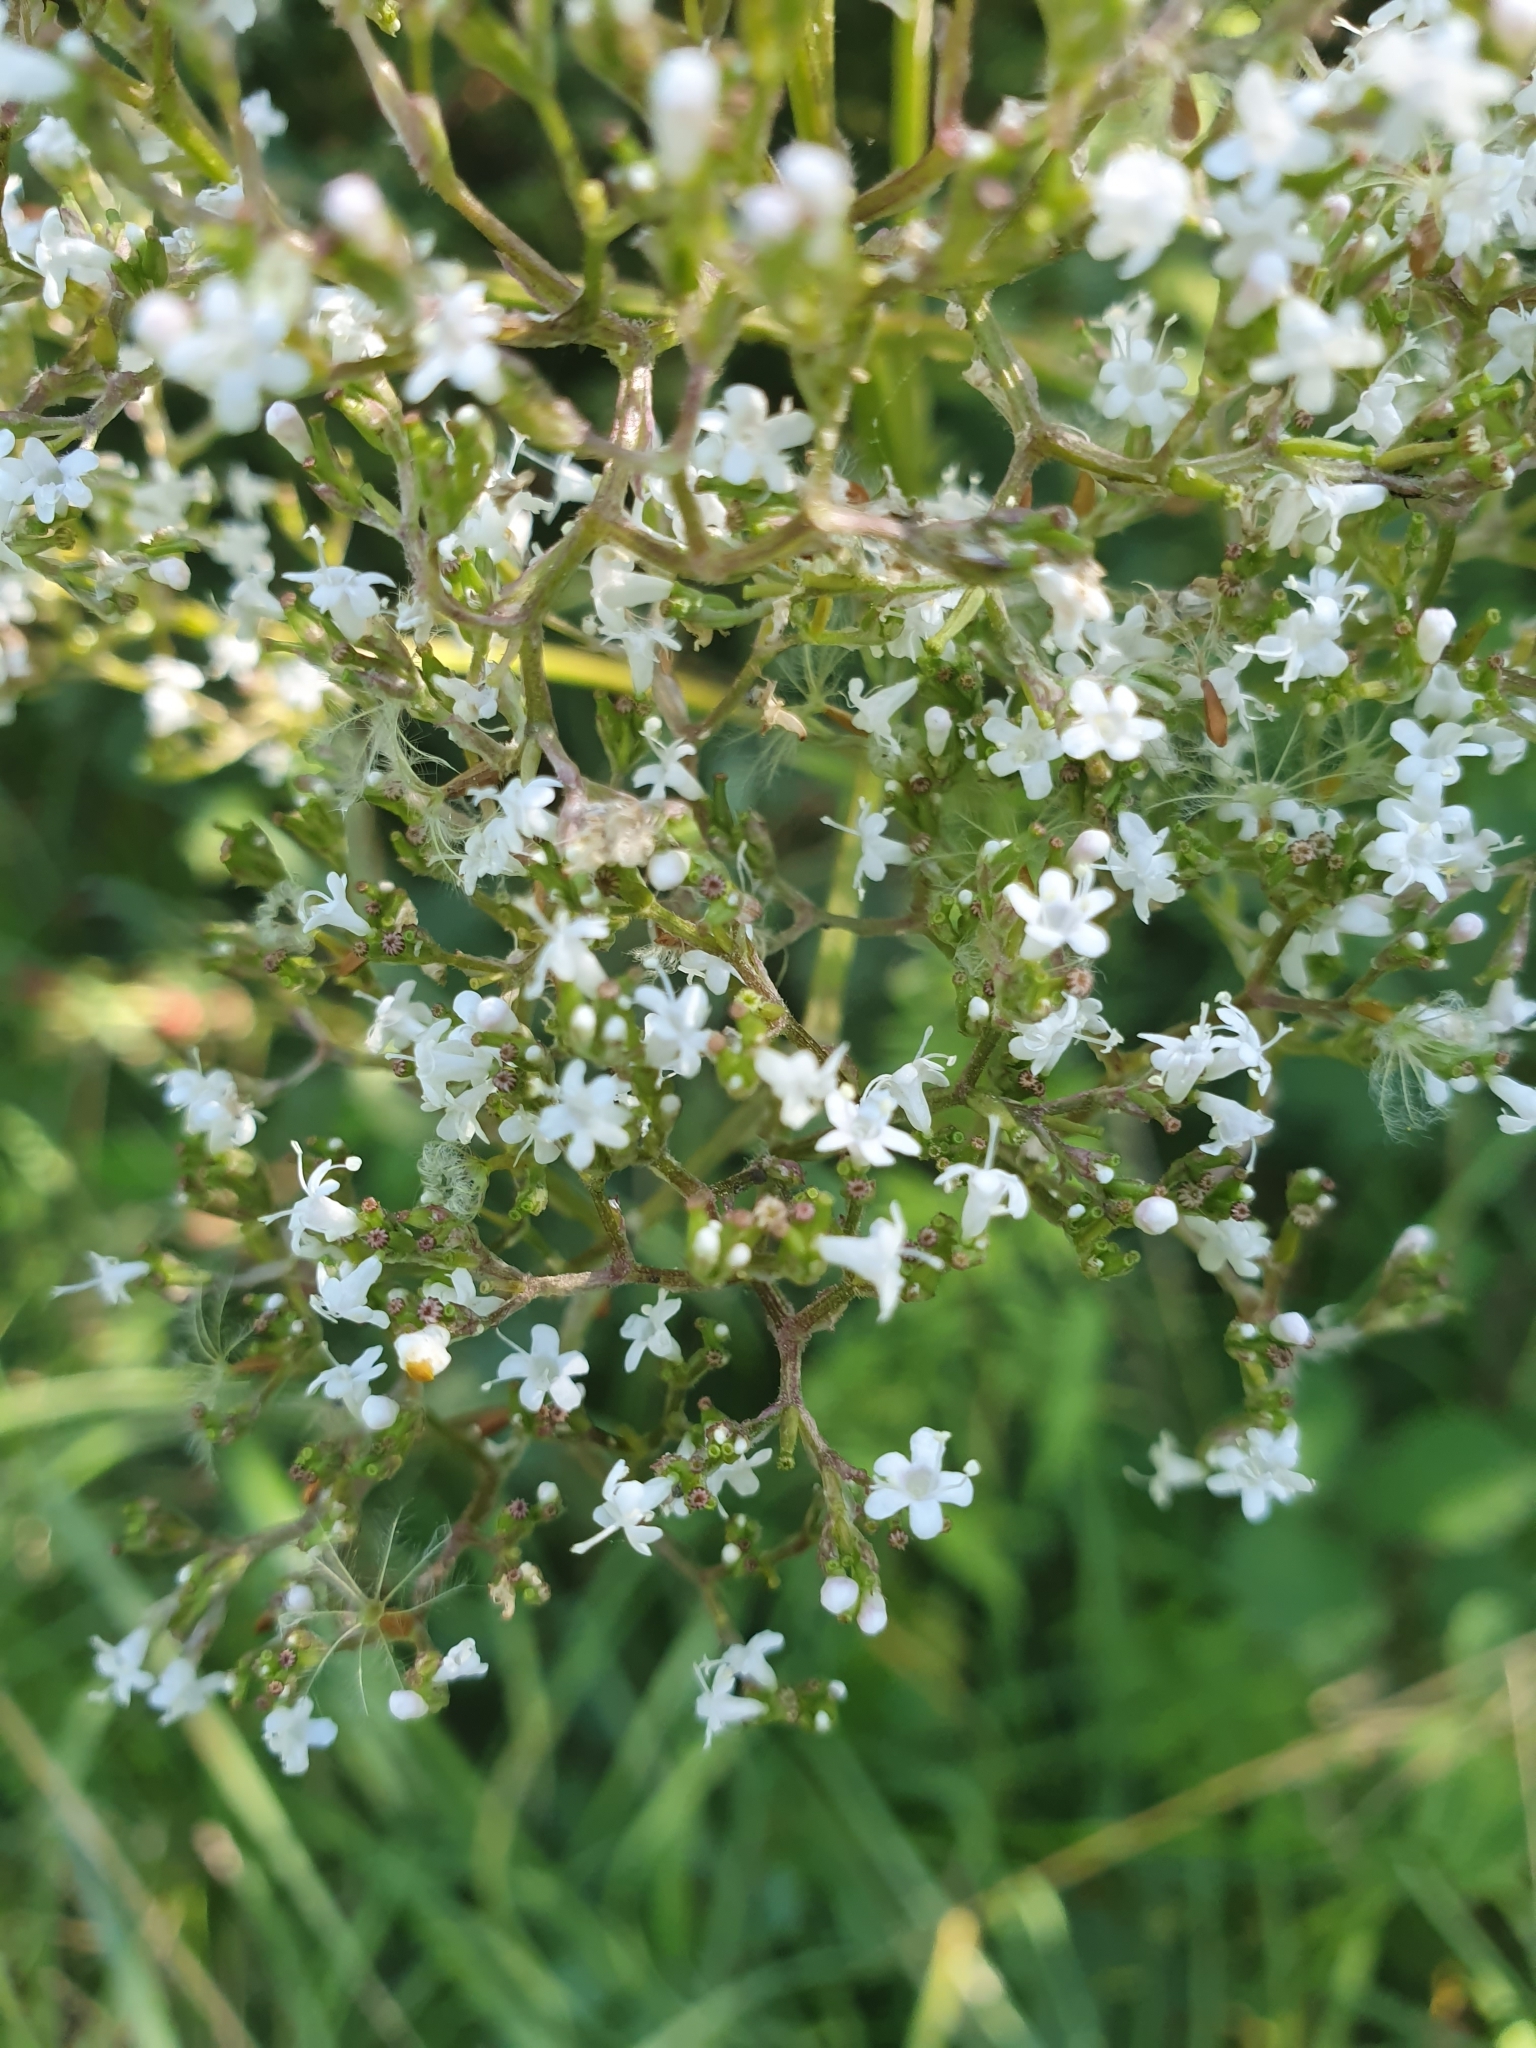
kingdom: Plantae
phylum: Tracheophyta
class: Magnoliopsida
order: Dipsacales
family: Caprifoliaceae
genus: Valeriana
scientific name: Valeriana officinalis
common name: Common valerian
